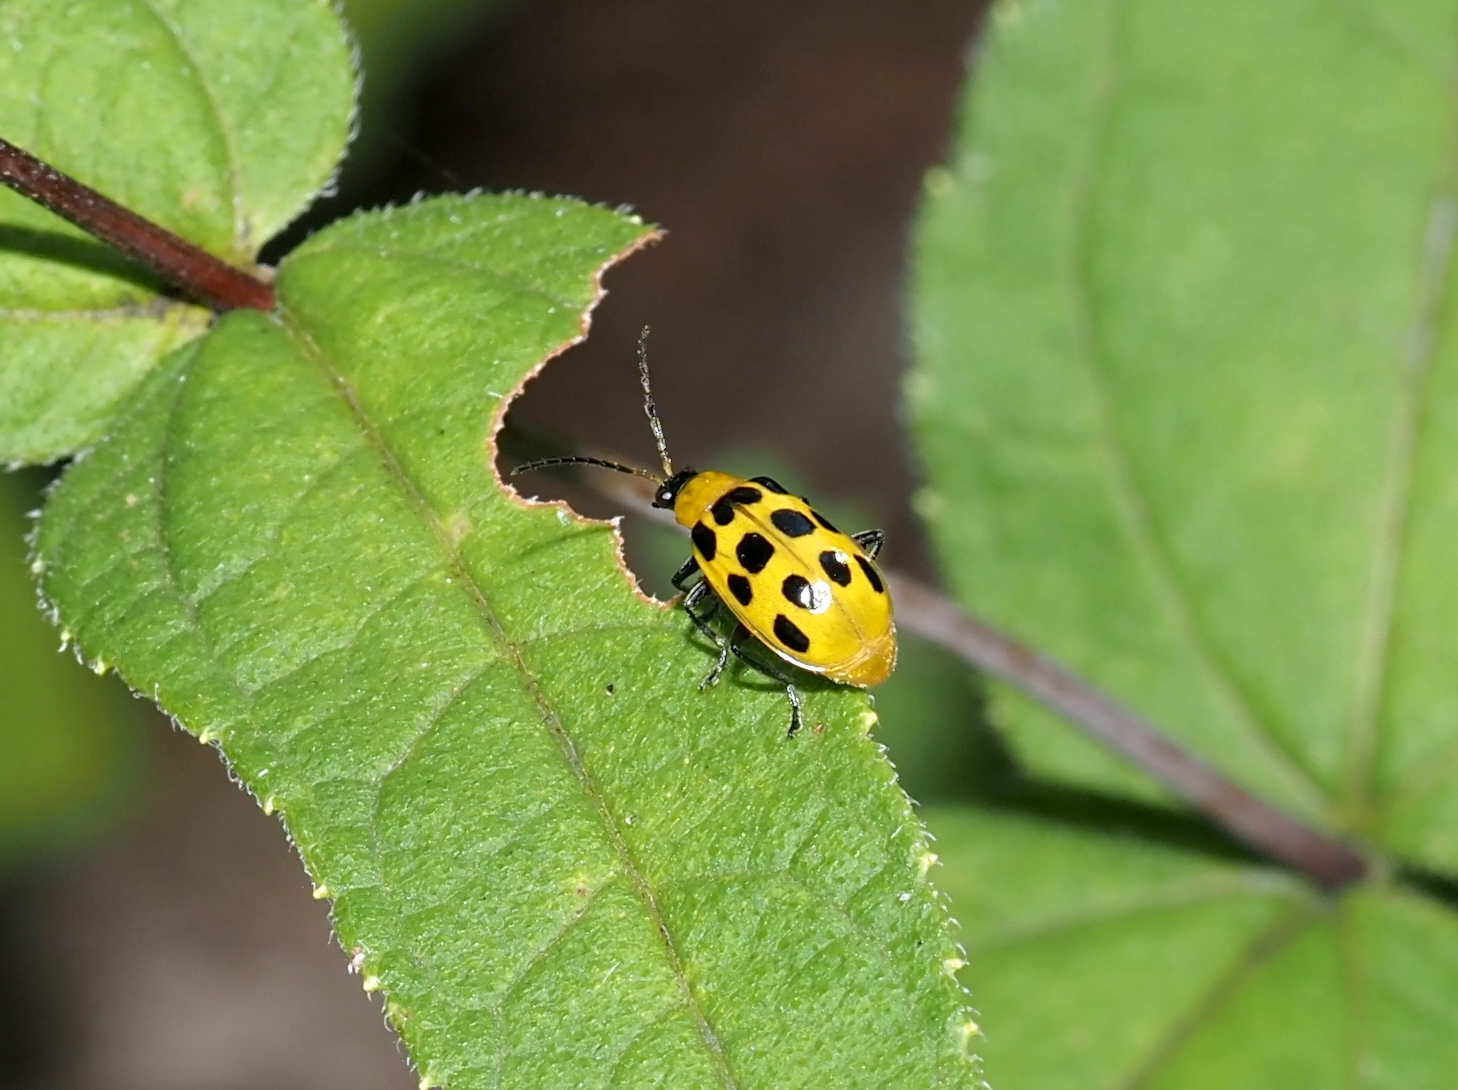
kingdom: Animalia
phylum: Arthropoda
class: Insecta
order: Coleoptera
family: Chrysomelidae
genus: Diabrotica
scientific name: Diabrotica undecimpunctata
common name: Spotted cucumber beetle
